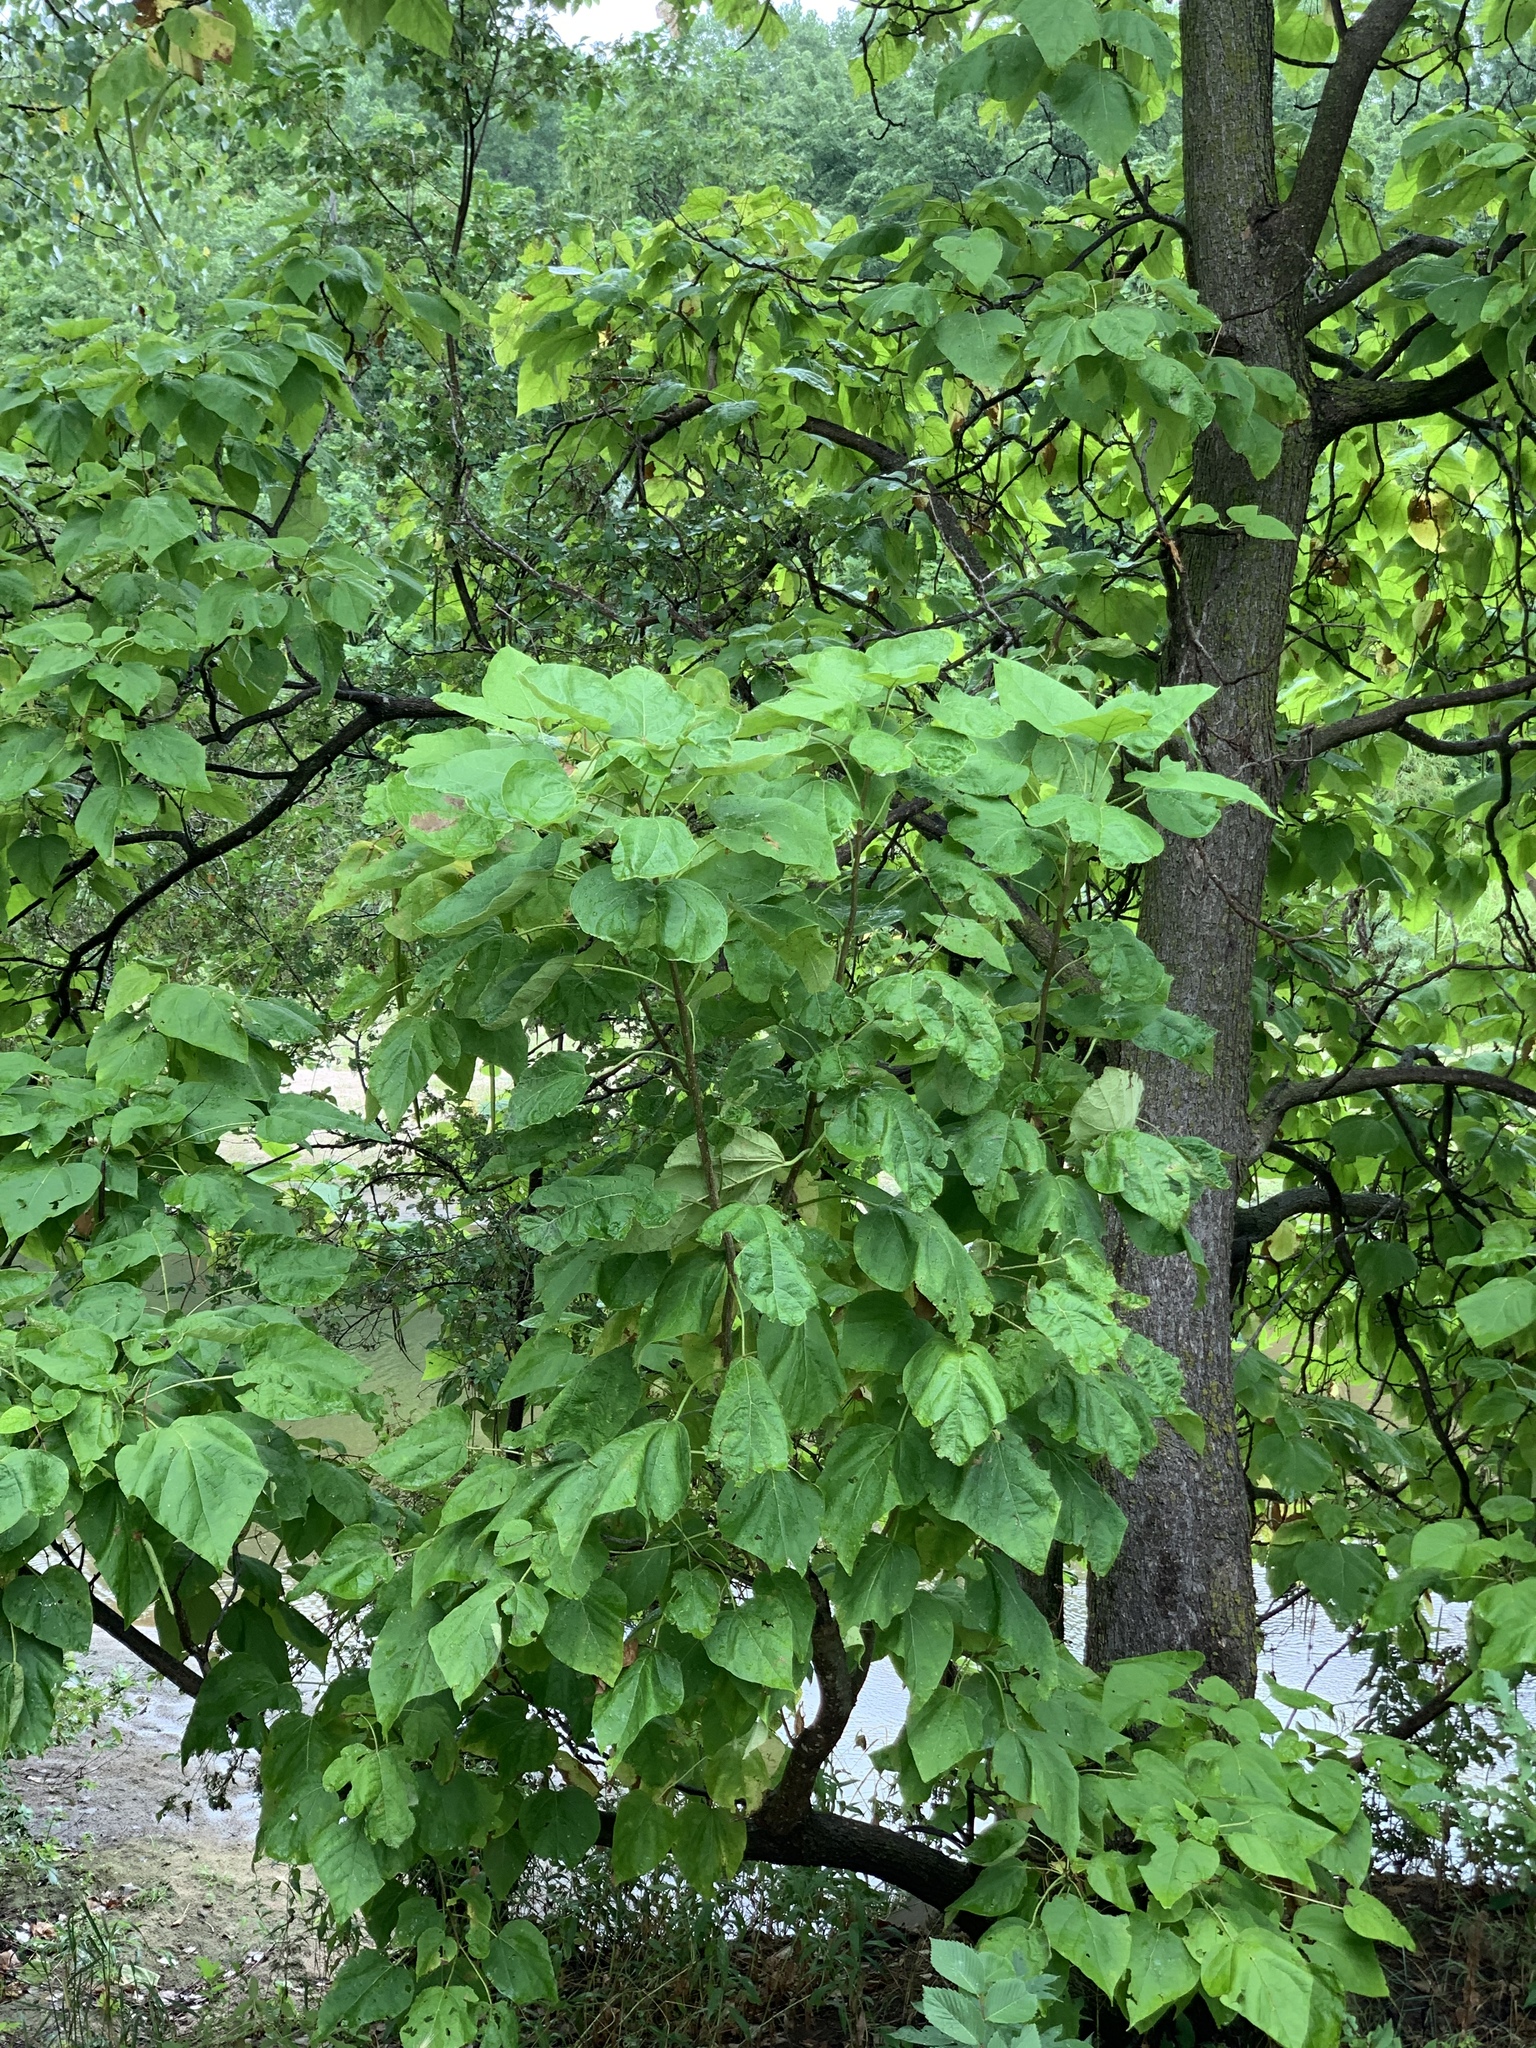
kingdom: Plantae
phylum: Tracheophyta
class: Magnoliopsida
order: Lamiales
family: Bignoniaceae
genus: Catalpa
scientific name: Catalpa speciosa
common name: Northern catalpa
